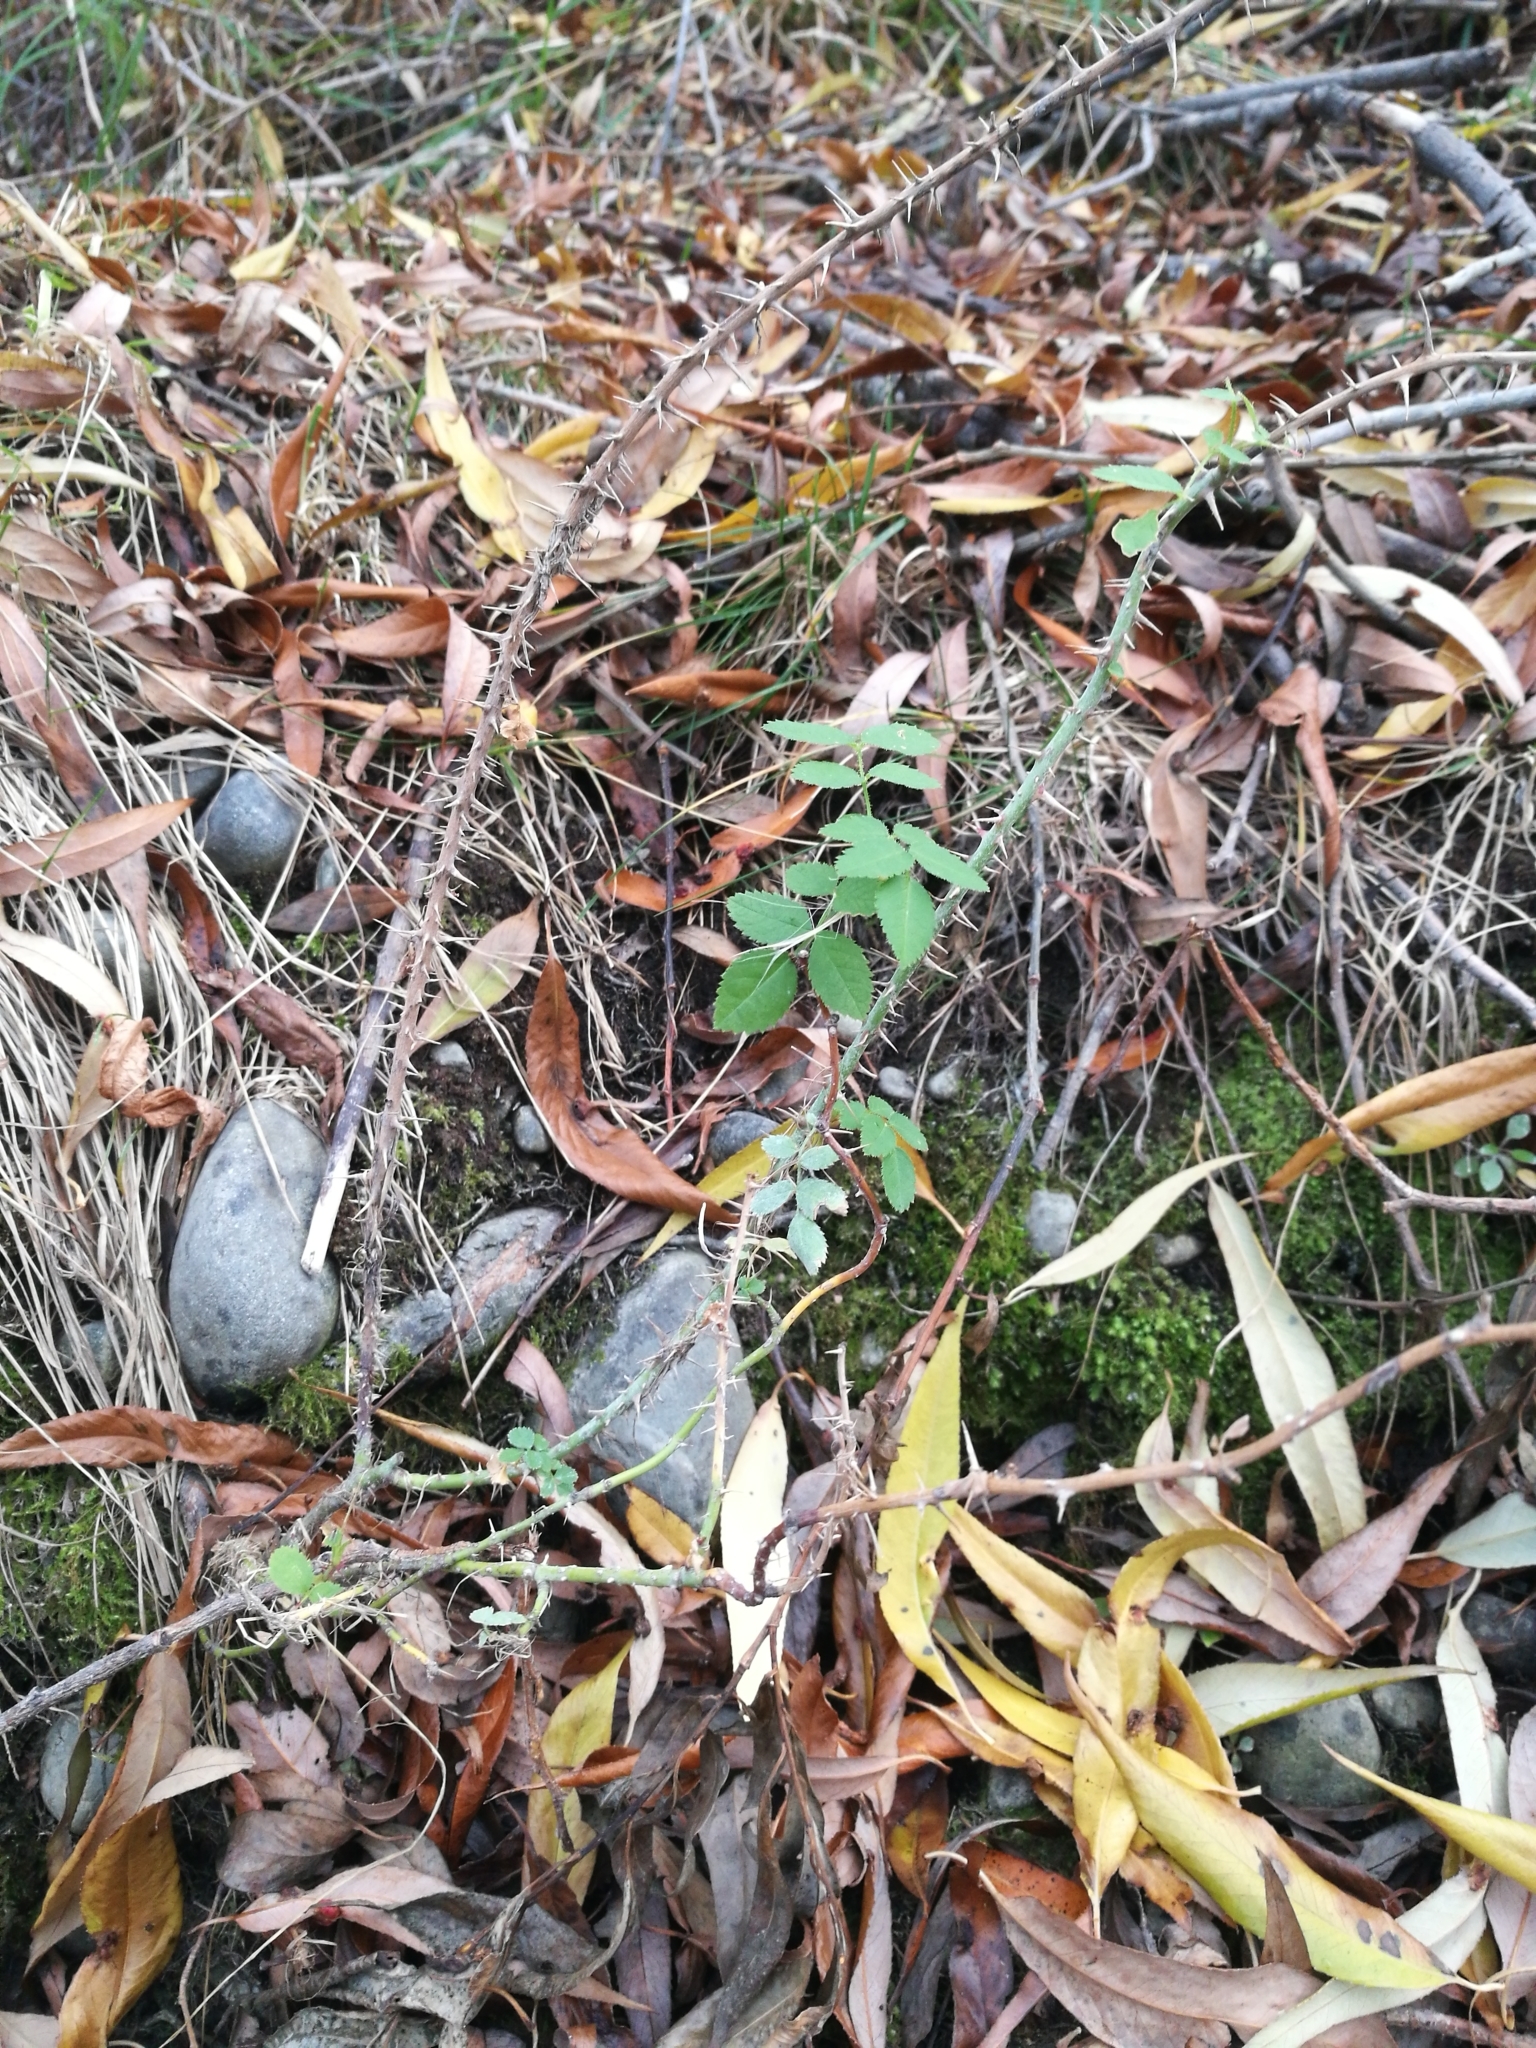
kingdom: Plantae
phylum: Tracheophyta
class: Magnoliopsida
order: Rosales
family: Rosaceae
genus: Rosa
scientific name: Rosa rubiginosa
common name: Sweet-briar
